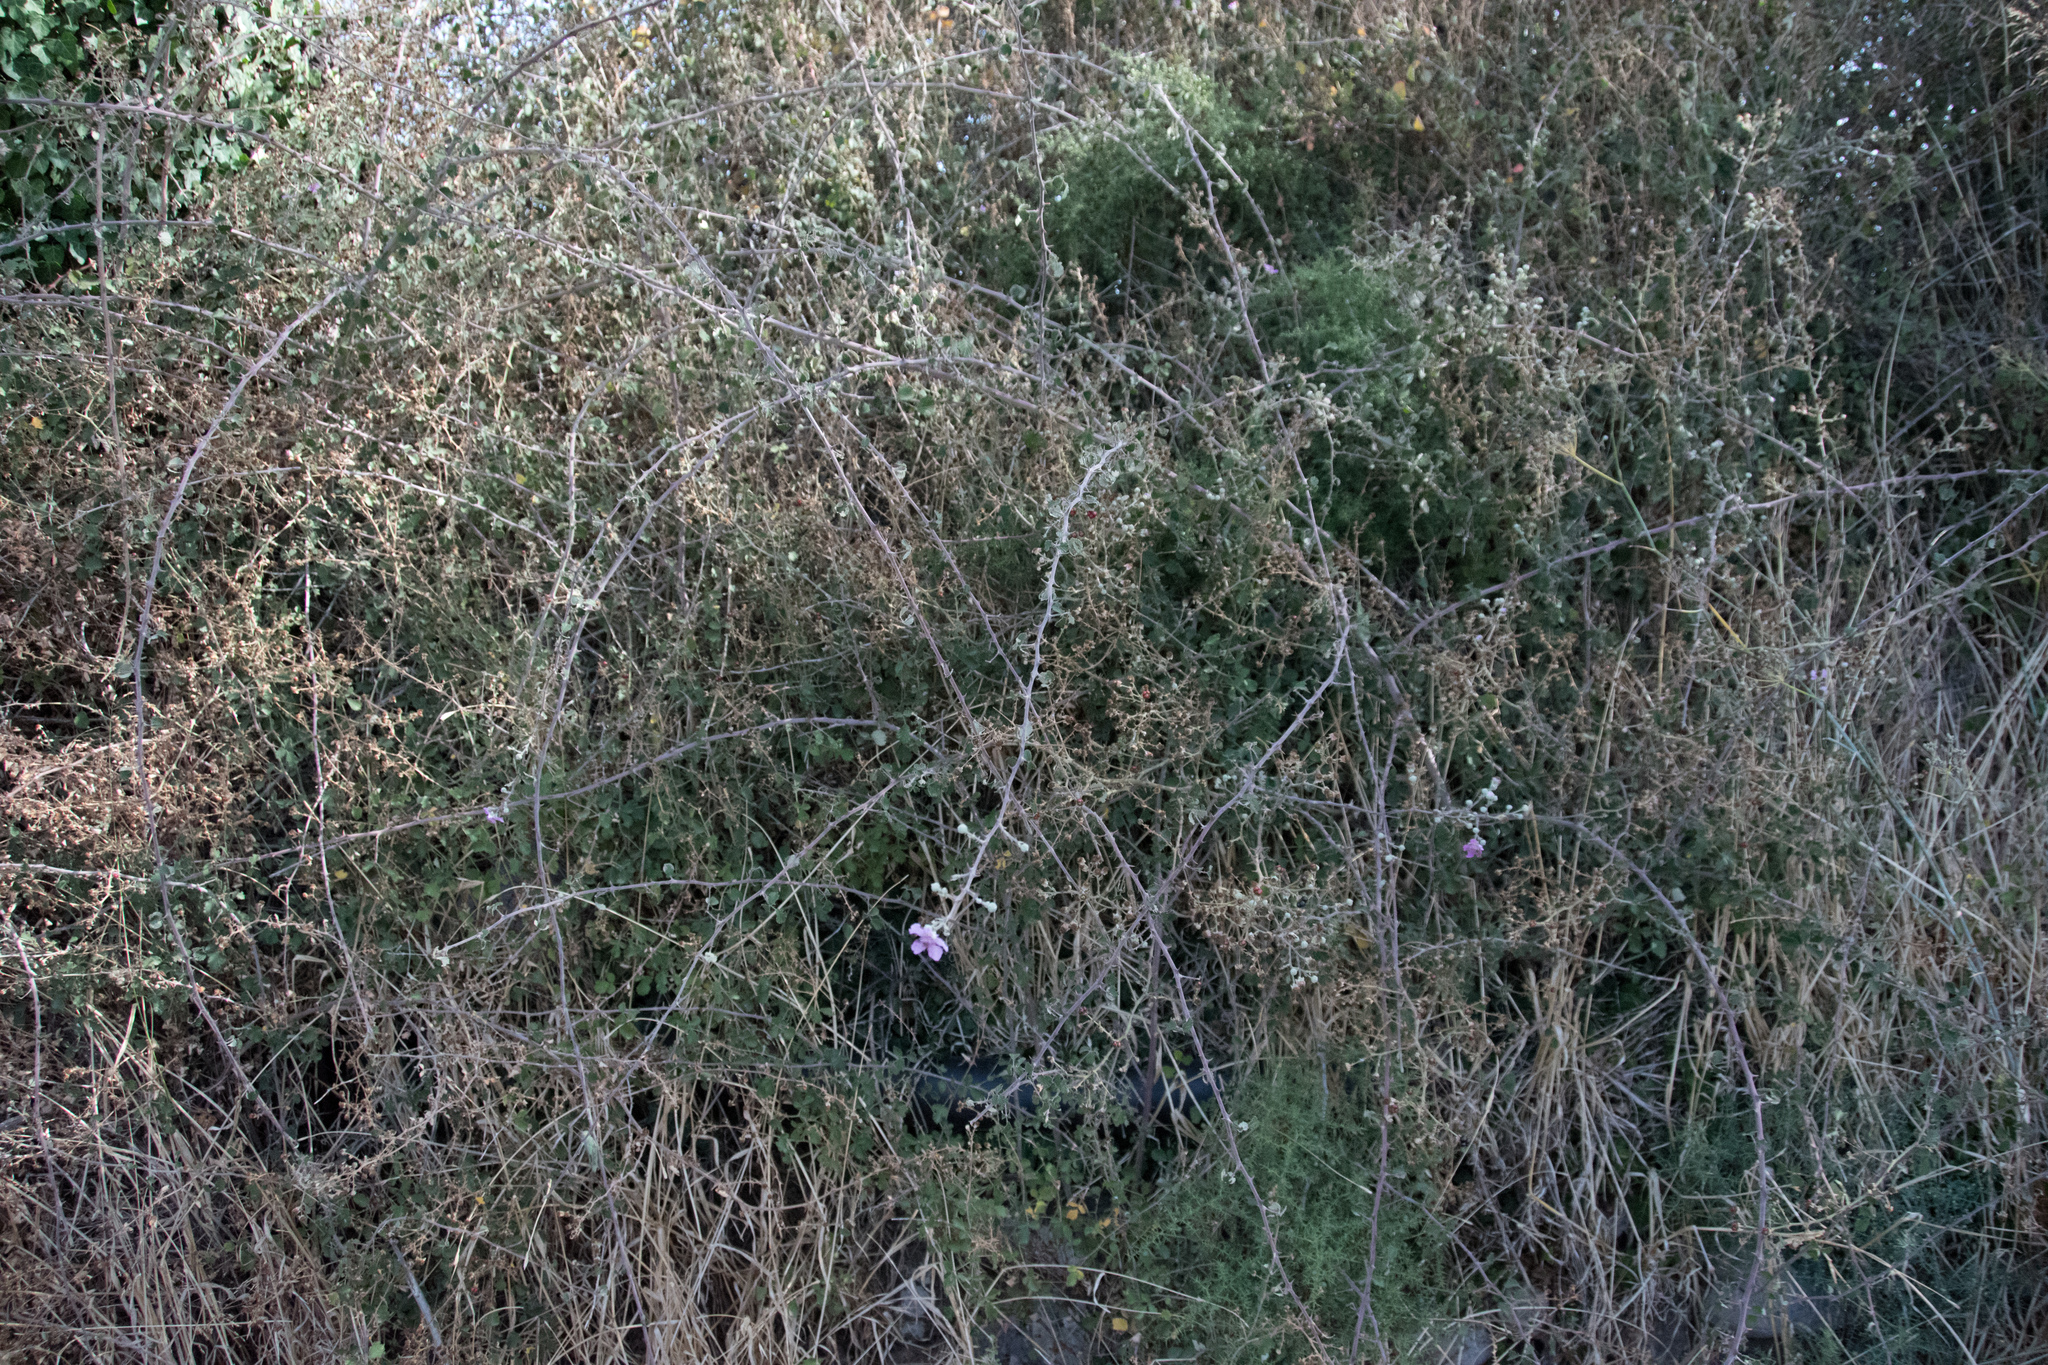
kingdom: Plantae
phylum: Tracheophyta
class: Magnoliopsida
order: Rosales
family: Rosaceae
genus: Rubus
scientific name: Rubus sanctus
